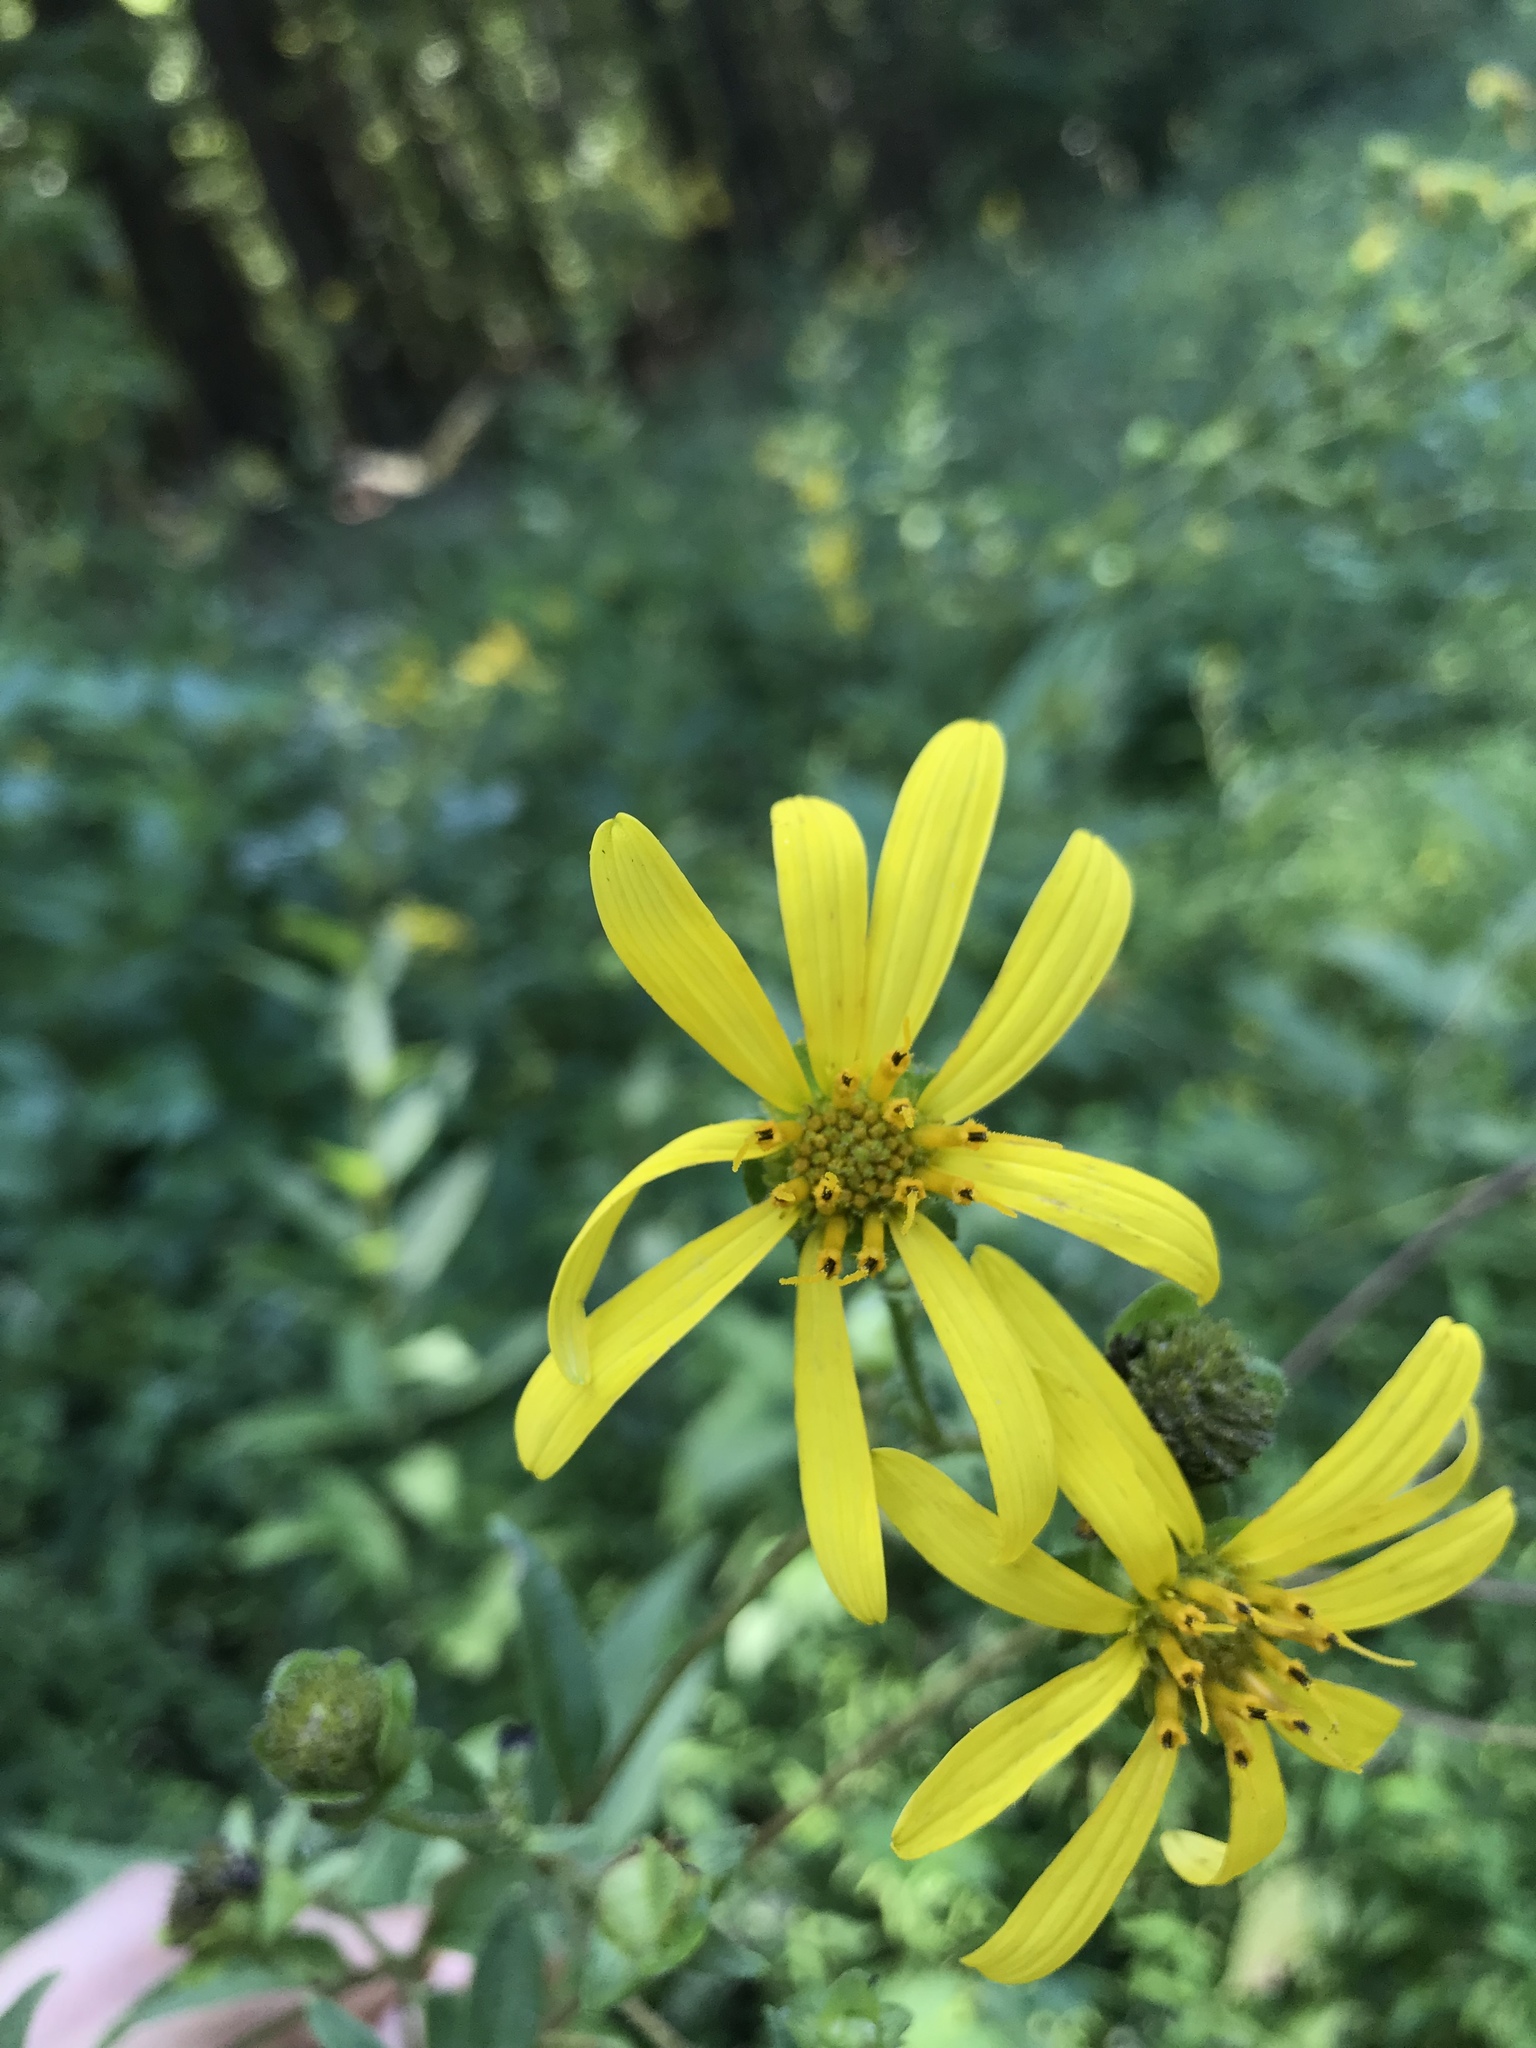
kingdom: Plantae
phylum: Tracheophyta
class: Magnoliopsida
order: Asterales
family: Asteraceae
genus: Silphium
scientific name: Silphium asteriscus
